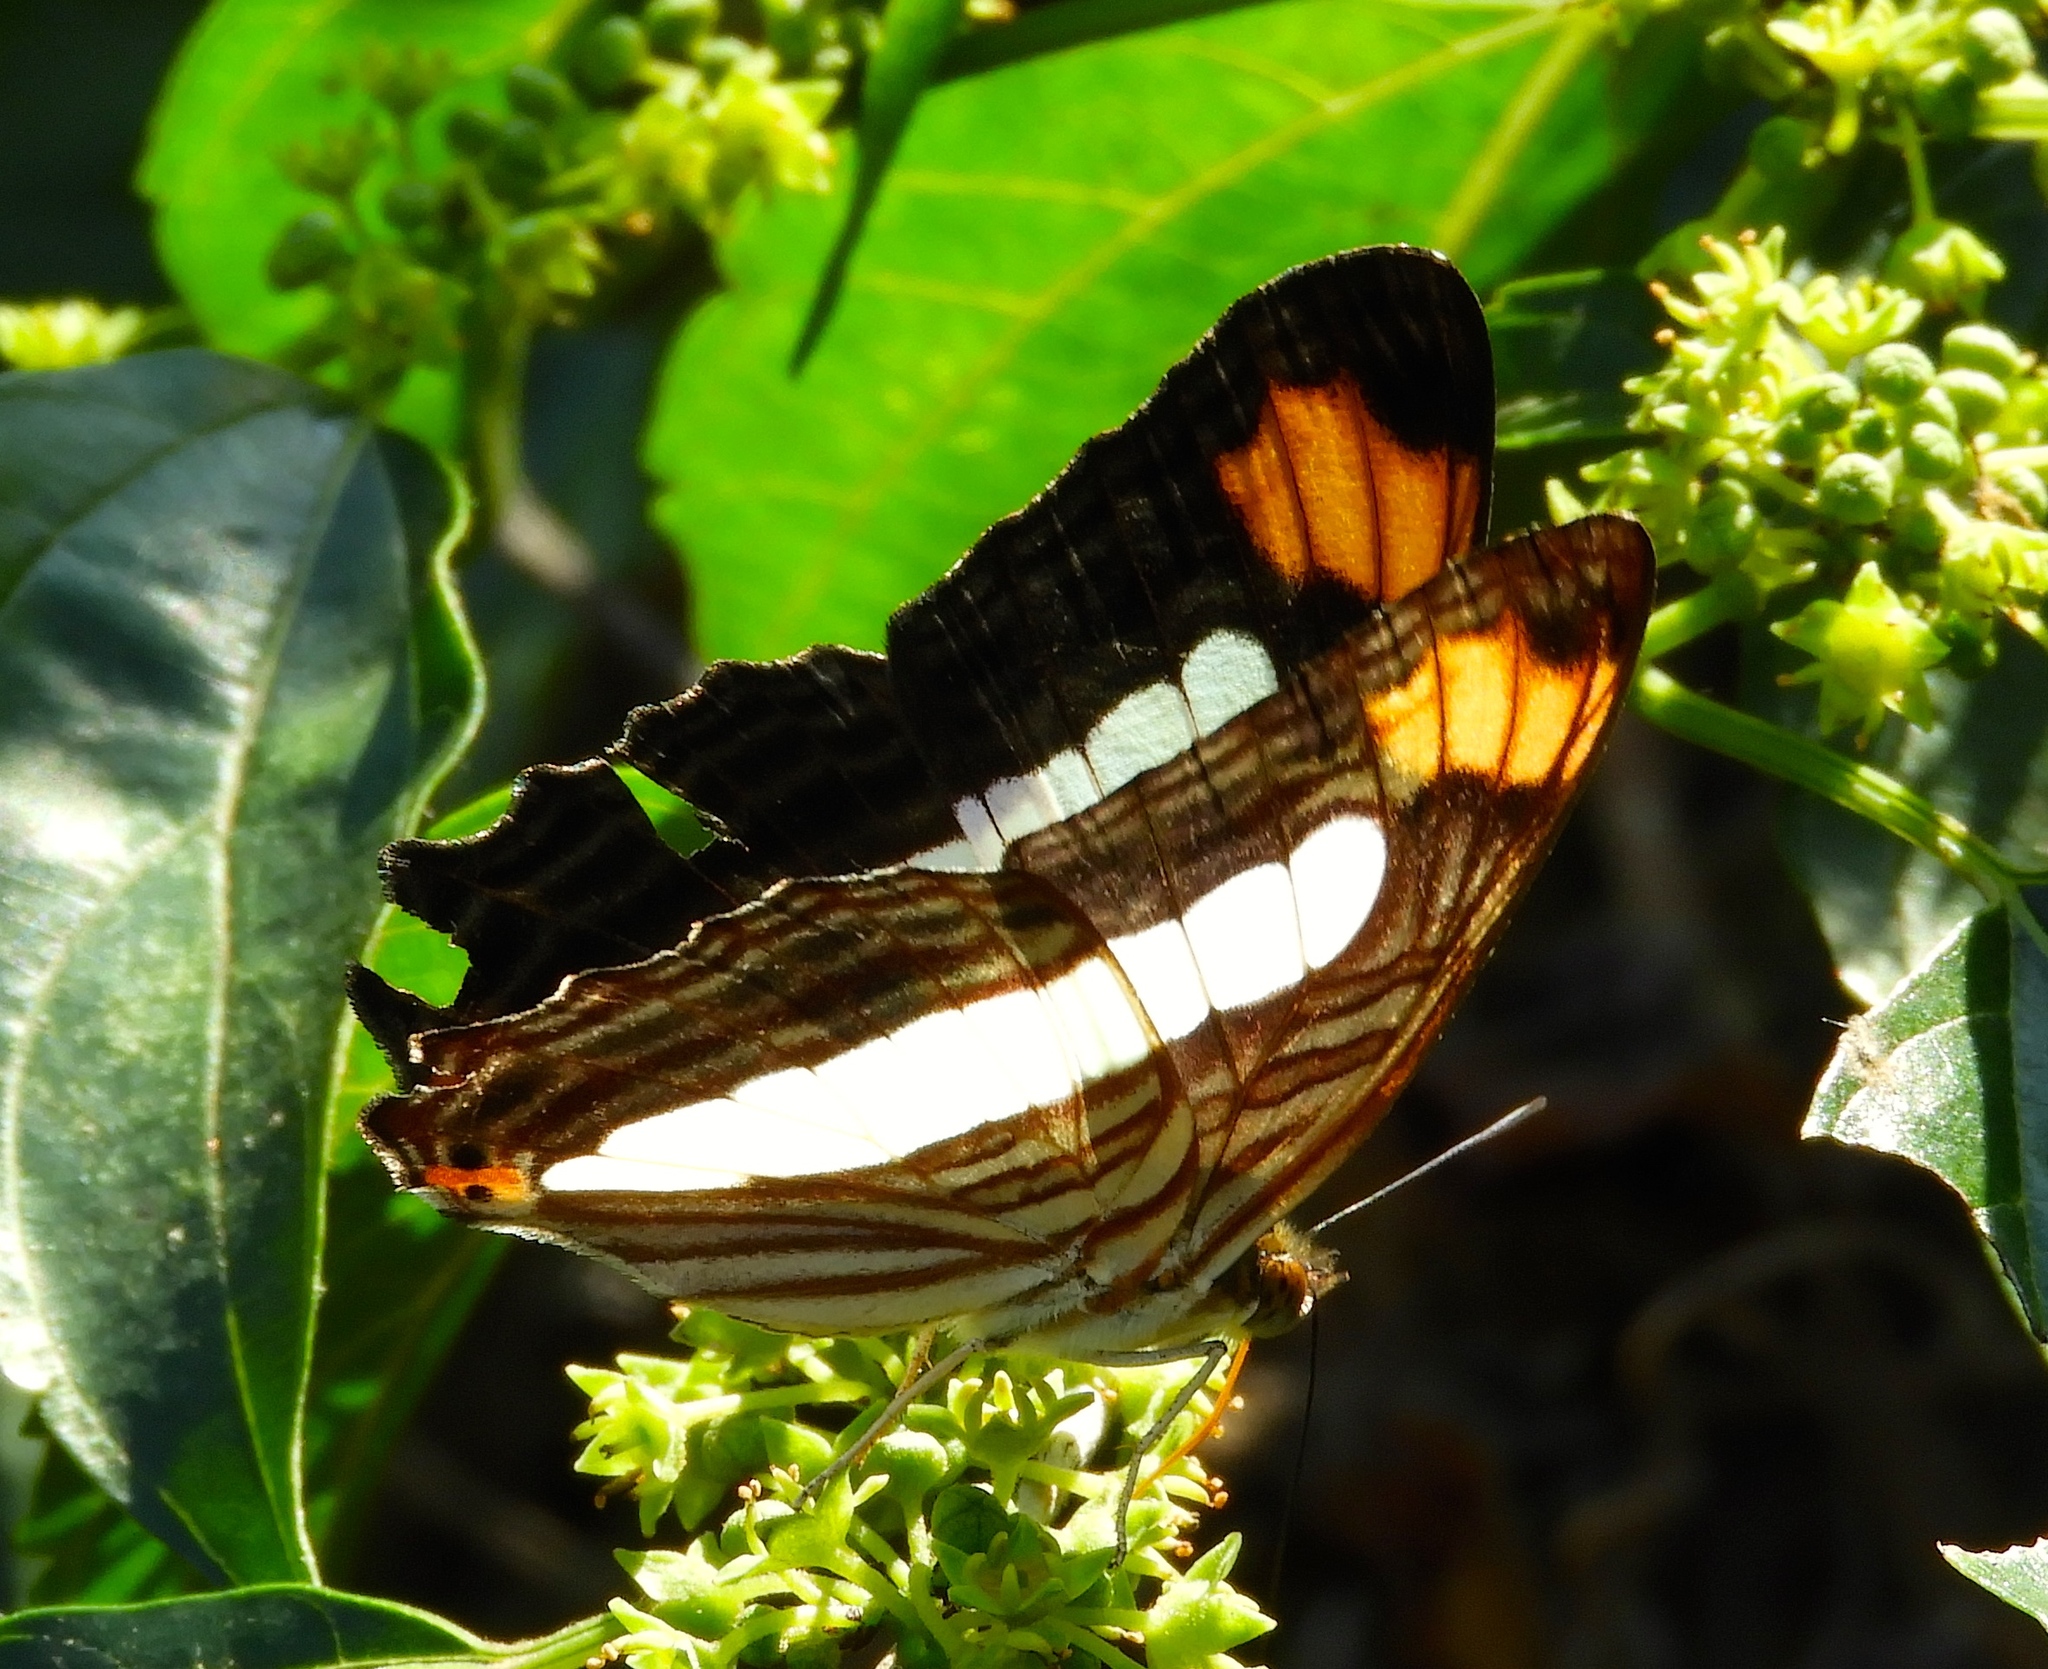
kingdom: Animalia
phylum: Arthropoda
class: Insecta
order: Lepidoptera
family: Nymphalidae
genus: Limenitis
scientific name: Limenitis iphiclus
